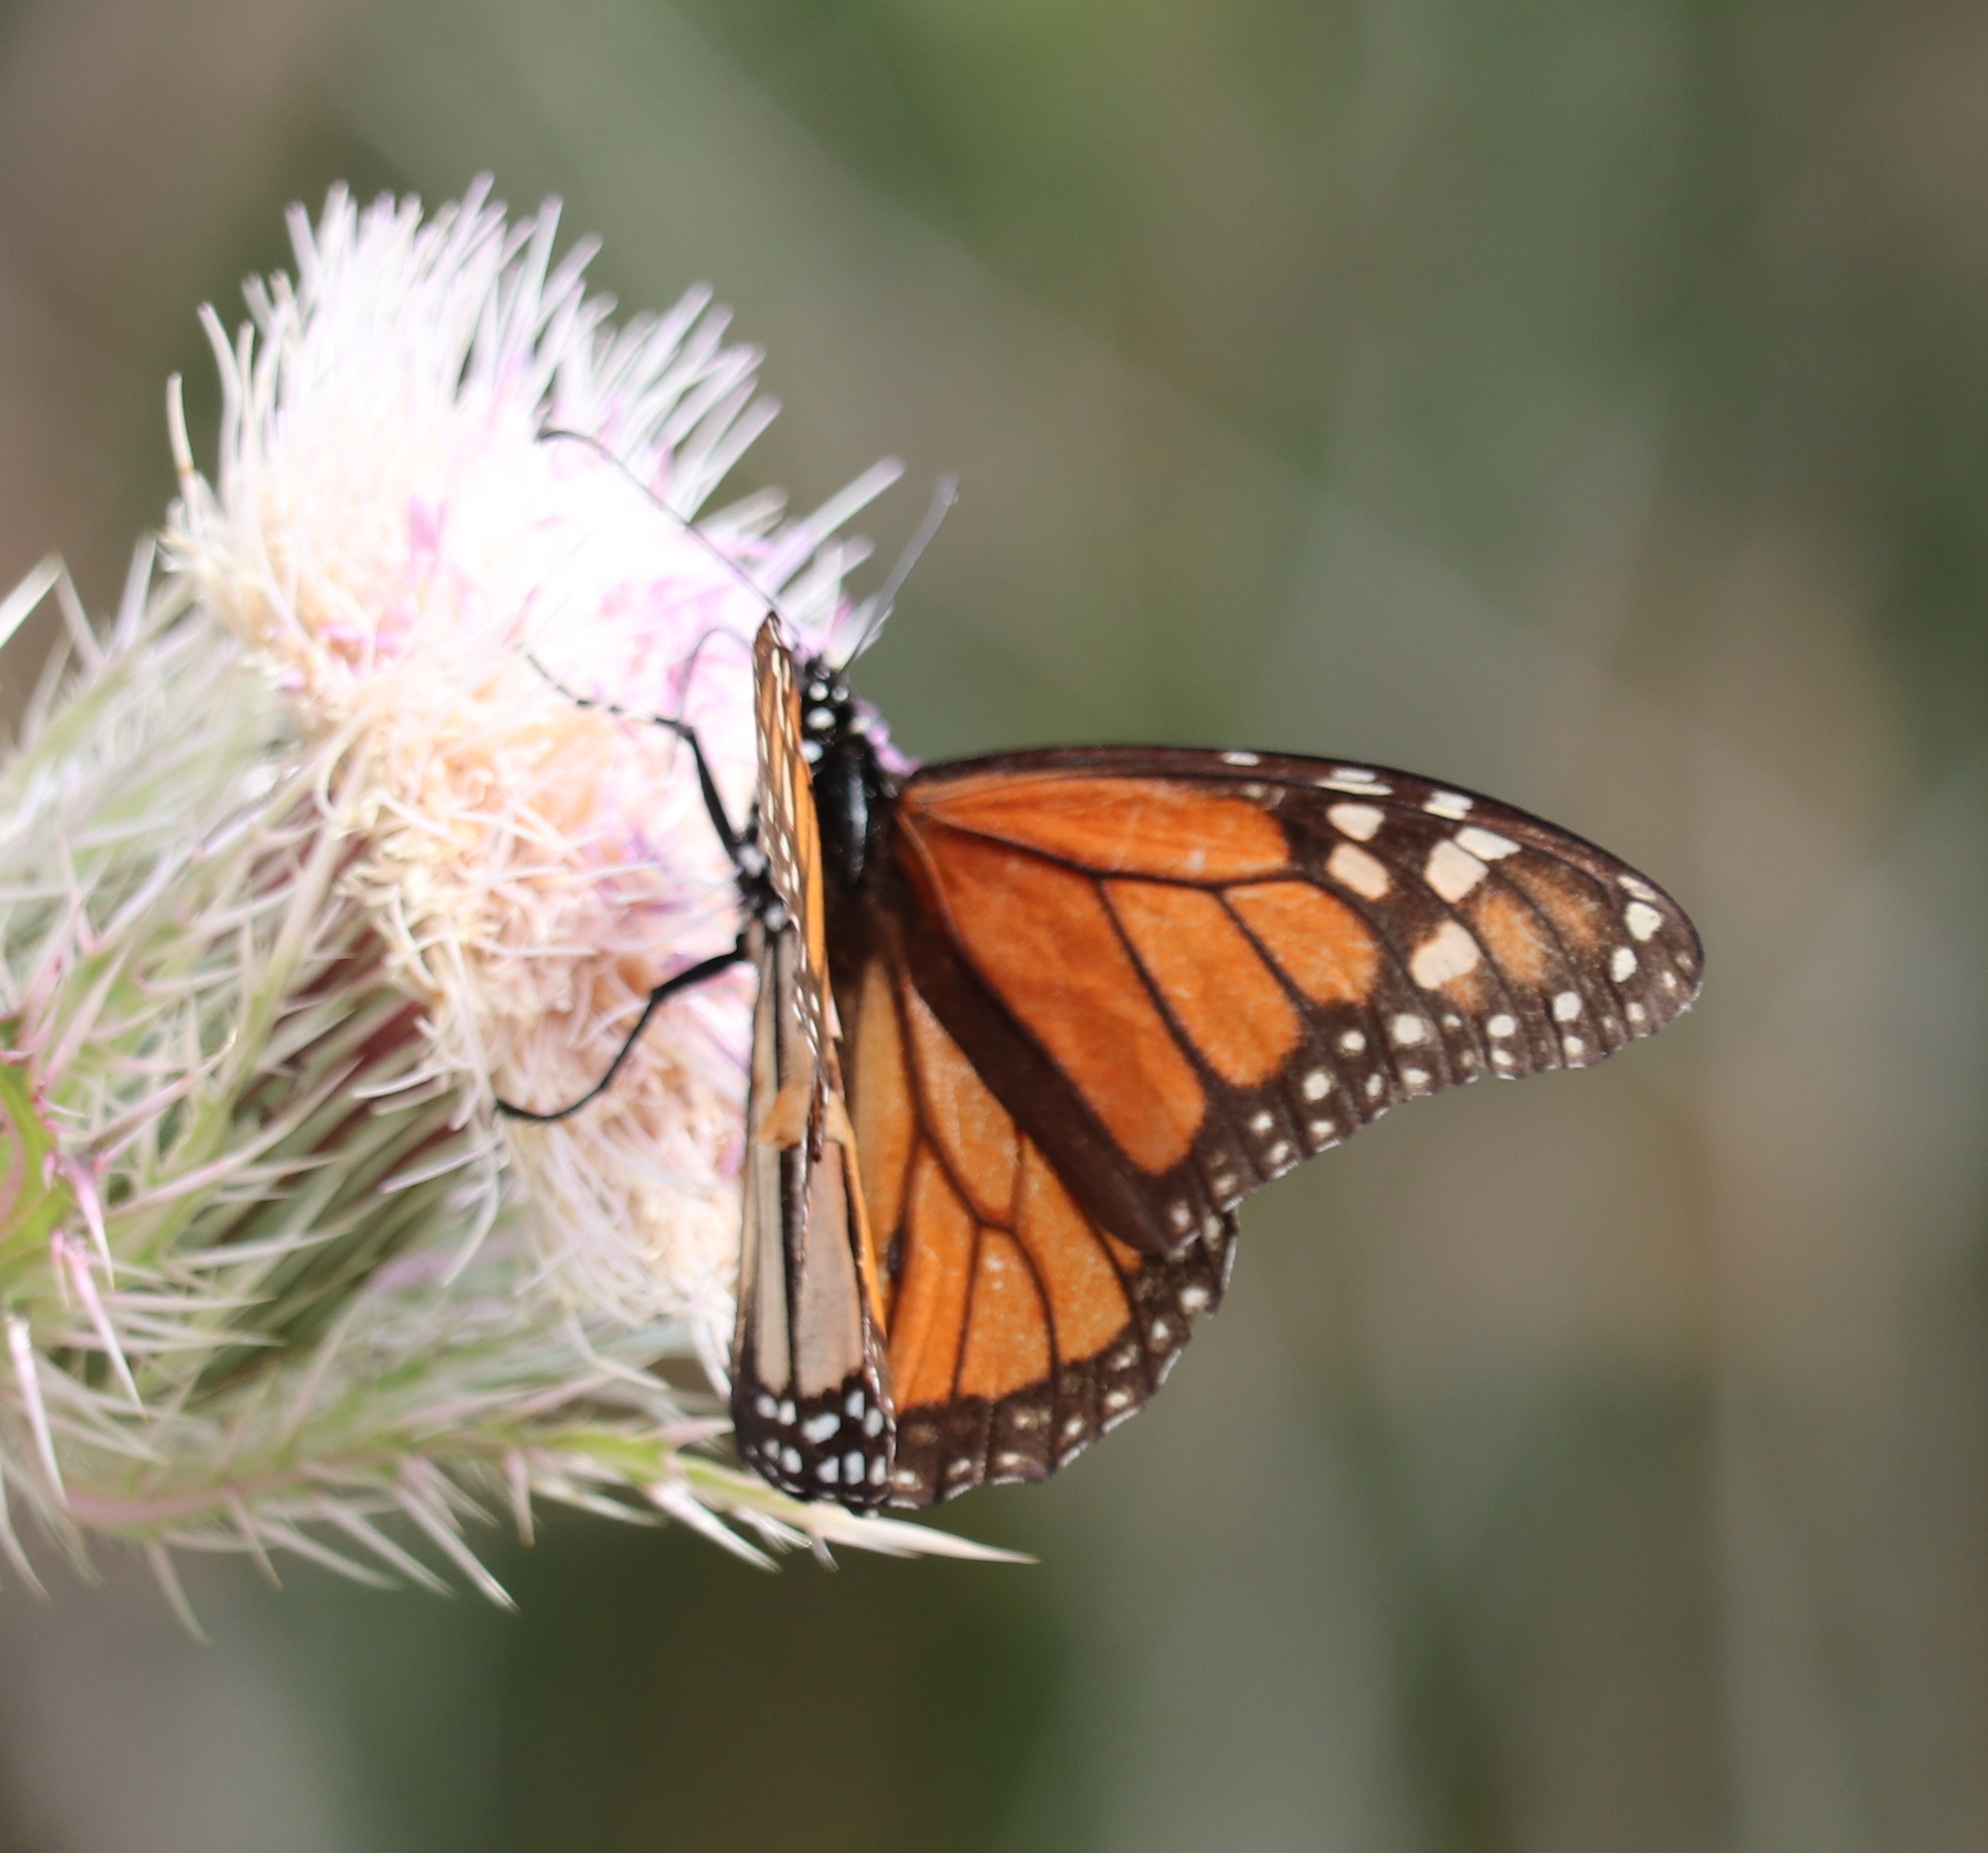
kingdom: Animalia
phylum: Arthropoda
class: Insecta
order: Lepidoptera
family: Nymphalidae
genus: Danaus
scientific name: Danaus plexippus
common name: Monarch
